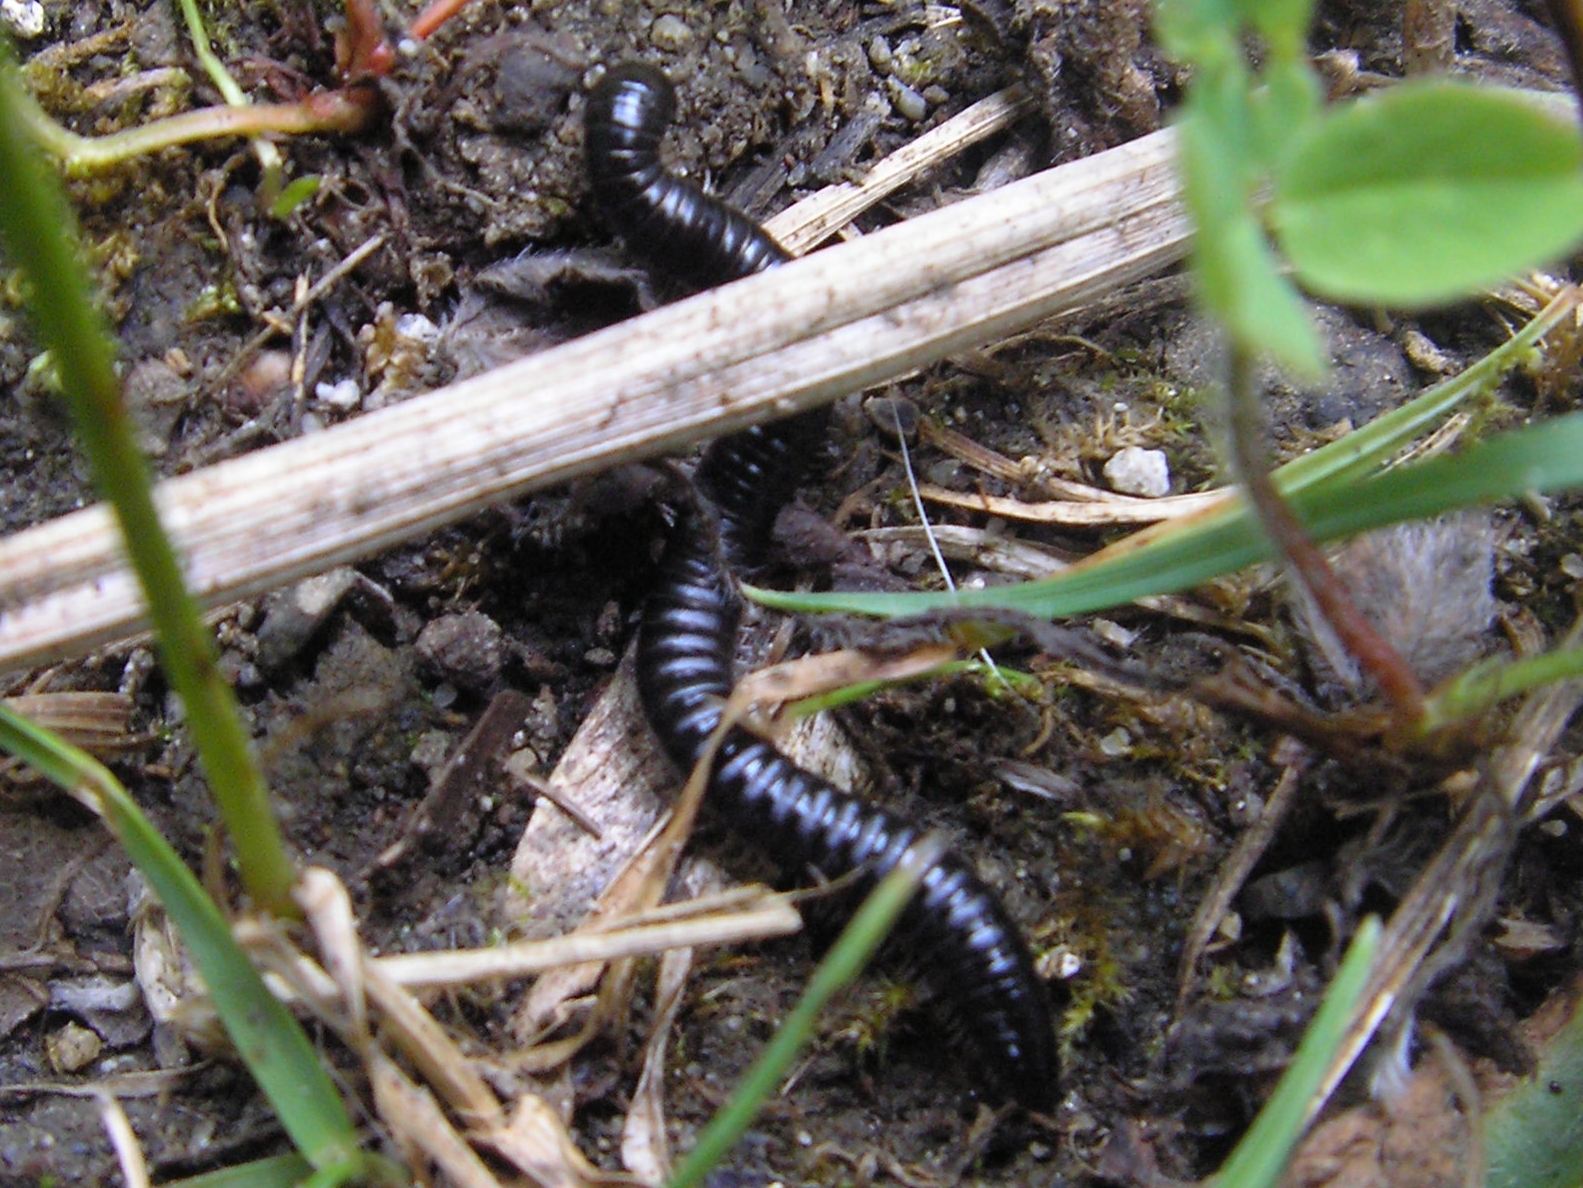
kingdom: Animalia
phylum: Arthropoda
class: Diplopoda
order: Julida
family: Julidae
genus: Tachypodoiulus
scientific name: Tachypodoiulus niger
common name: White-legged snake millipede
